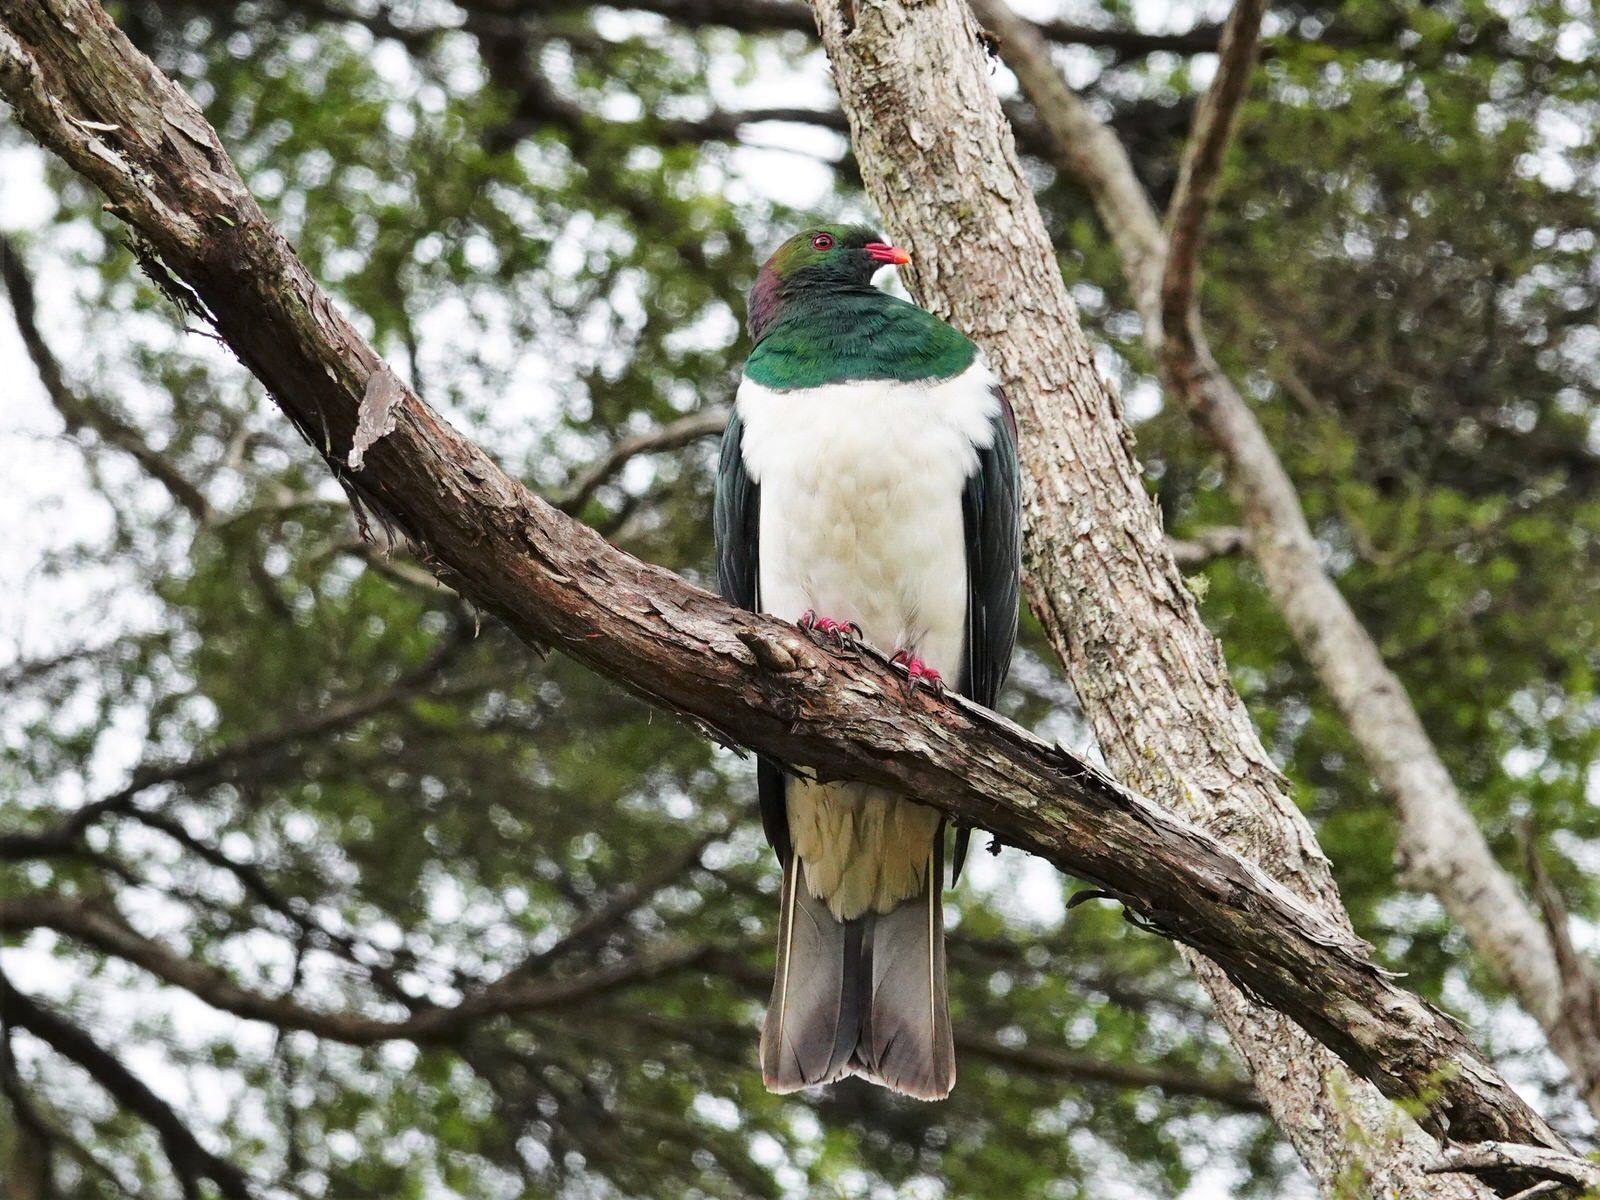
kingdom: Animalia
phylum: Chordata
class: Aves
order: Columbiformes
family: Columbidae
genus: Hemiphaga
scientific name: Hemiphaga novaeseelandiae
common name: New zealand pigeon
